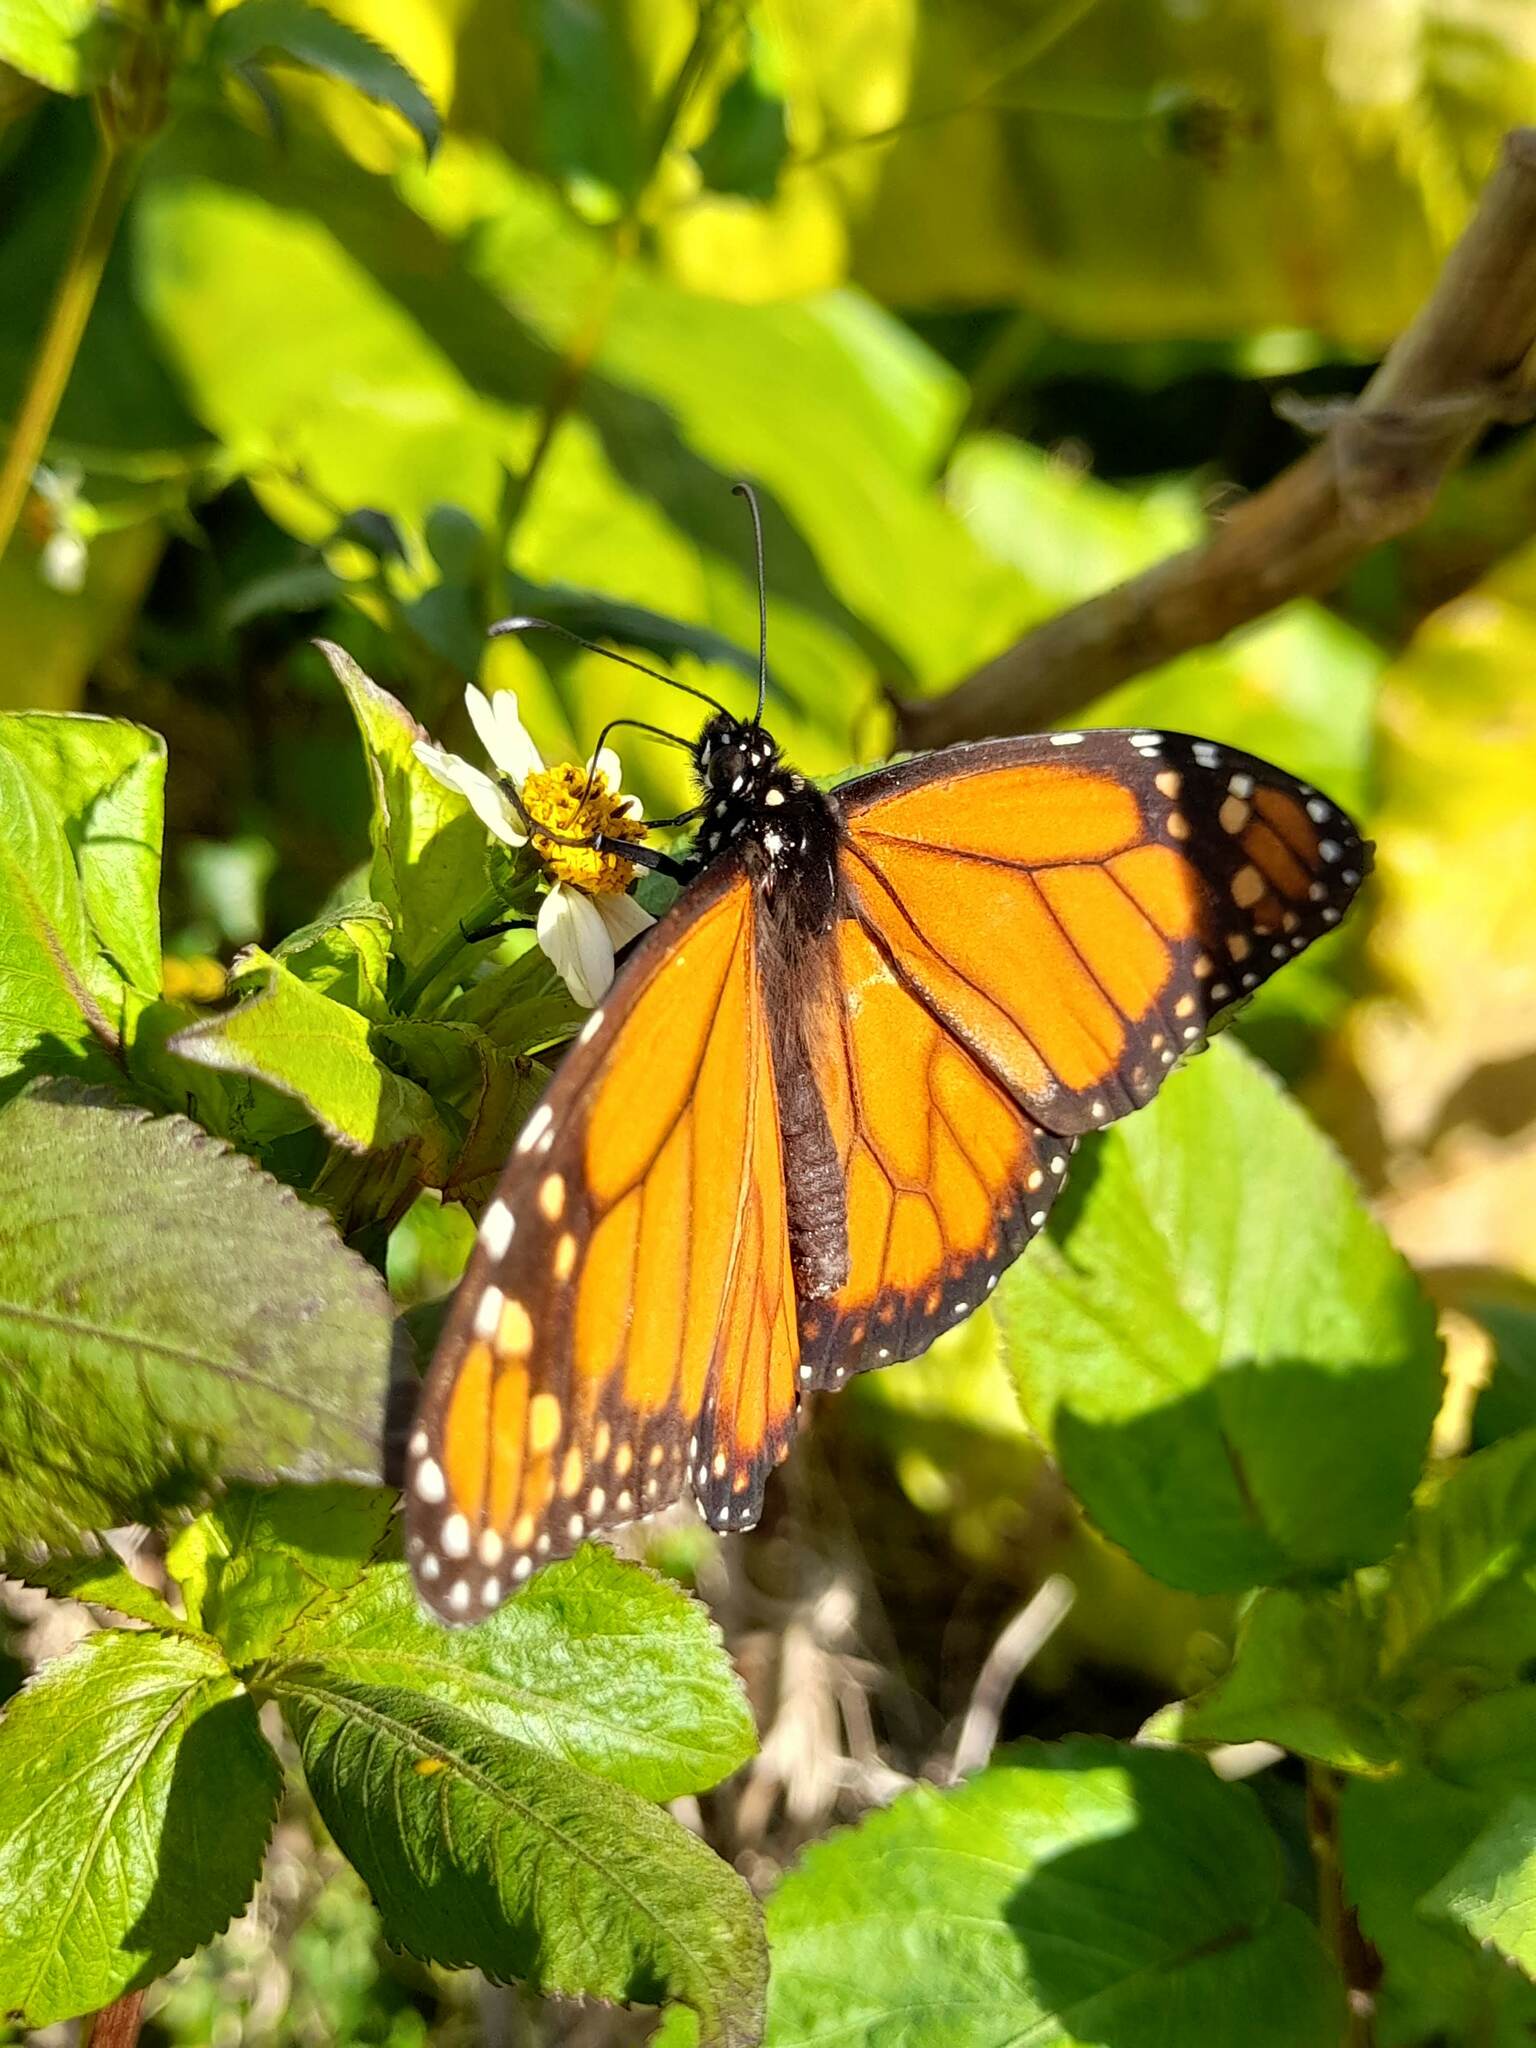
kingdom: Animalia
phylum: Arthropoda
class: Insecta
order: Lepidoptera
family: Nymphalidae
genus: Danaus
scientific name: Danaus erippus
